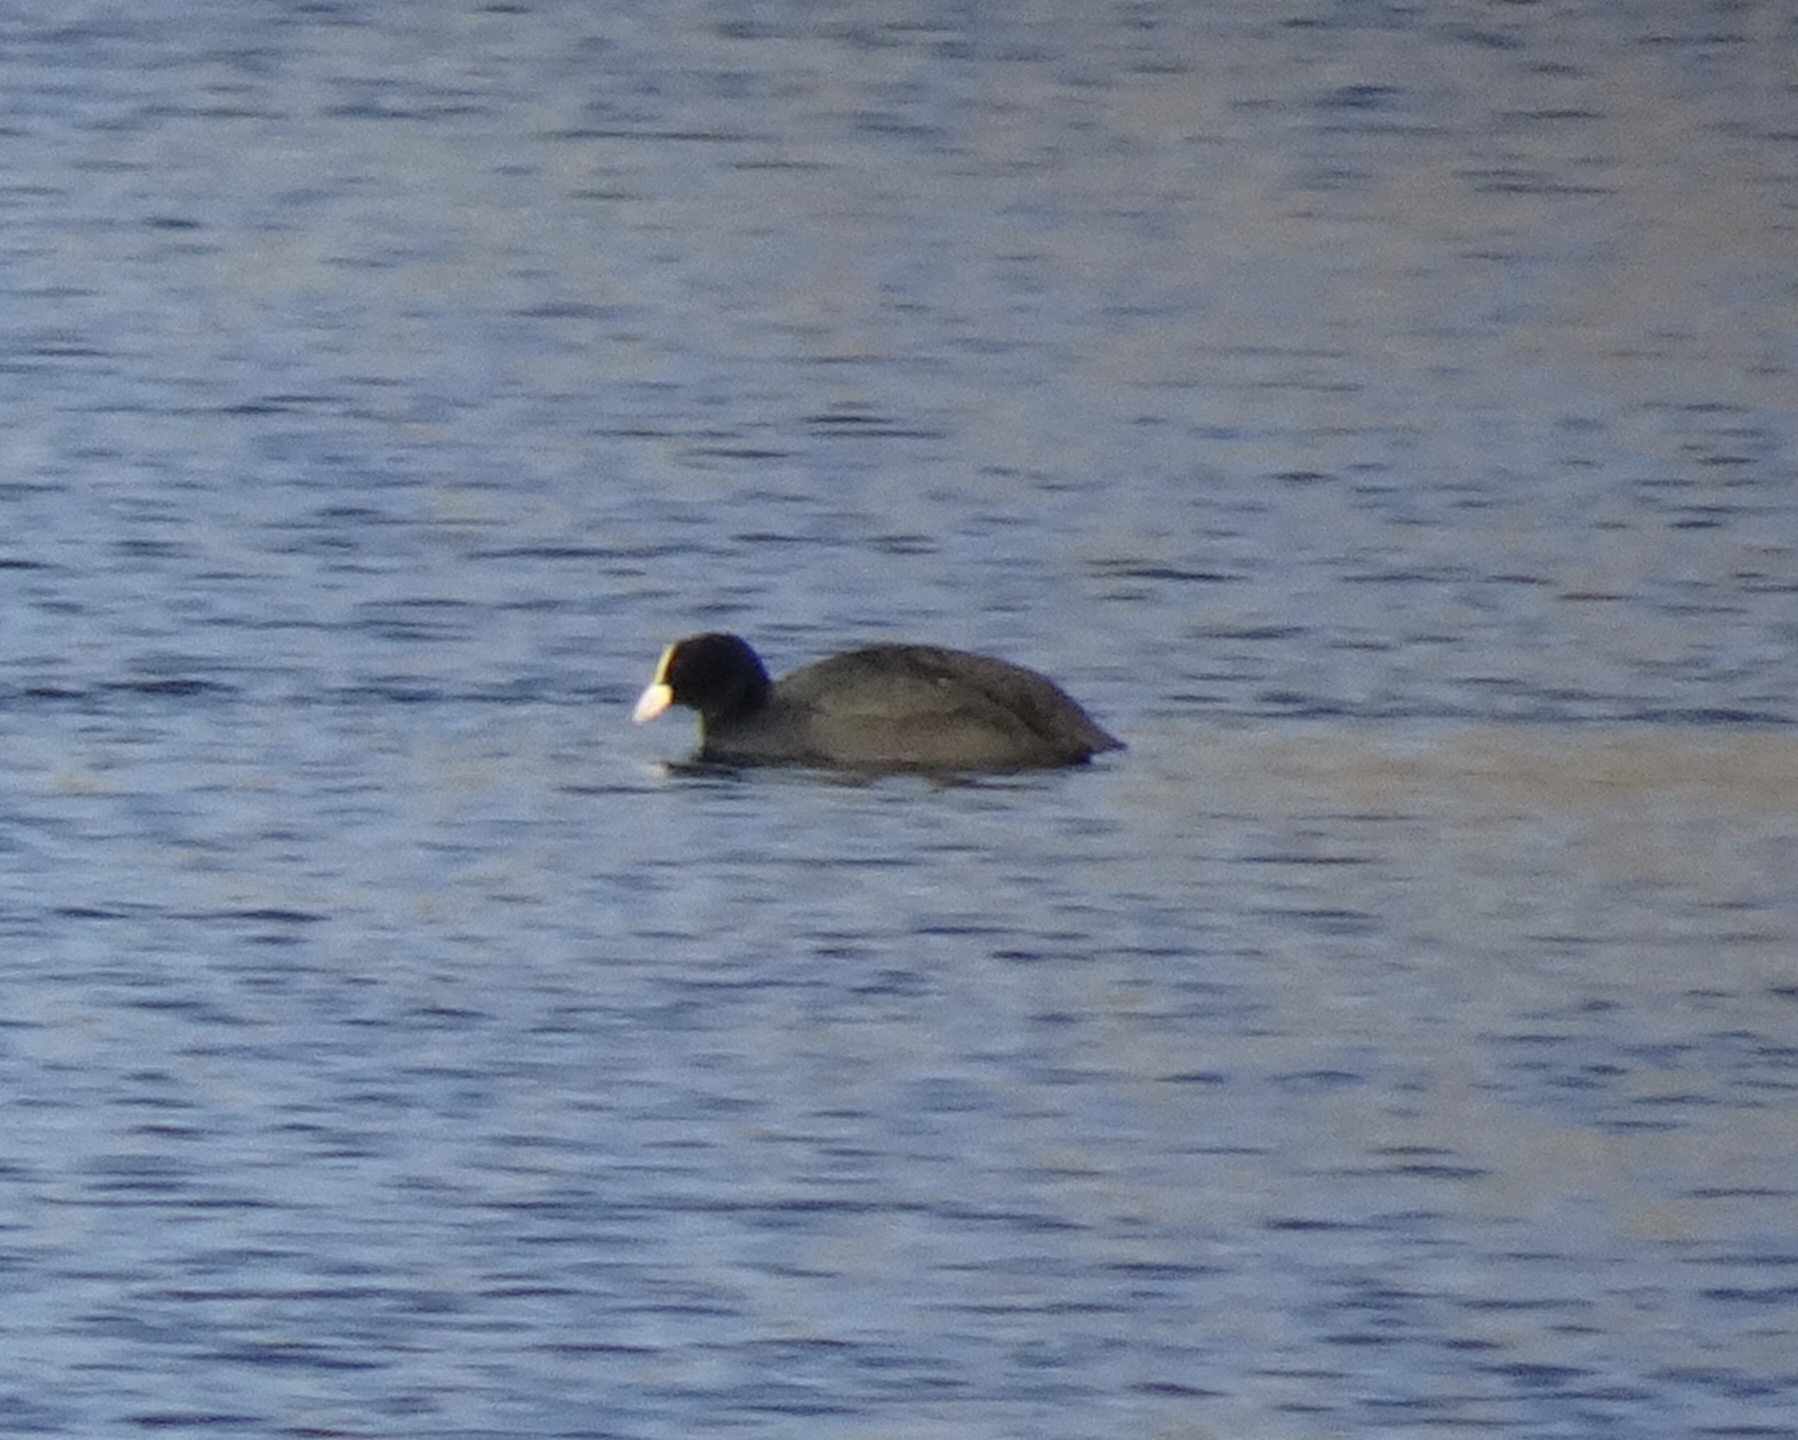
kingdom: Animalia
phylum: Chordata
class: Aves
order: Gruiformes
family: Rallidae
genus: Fulica
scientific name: Fulica atra
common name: Eurasian coot
